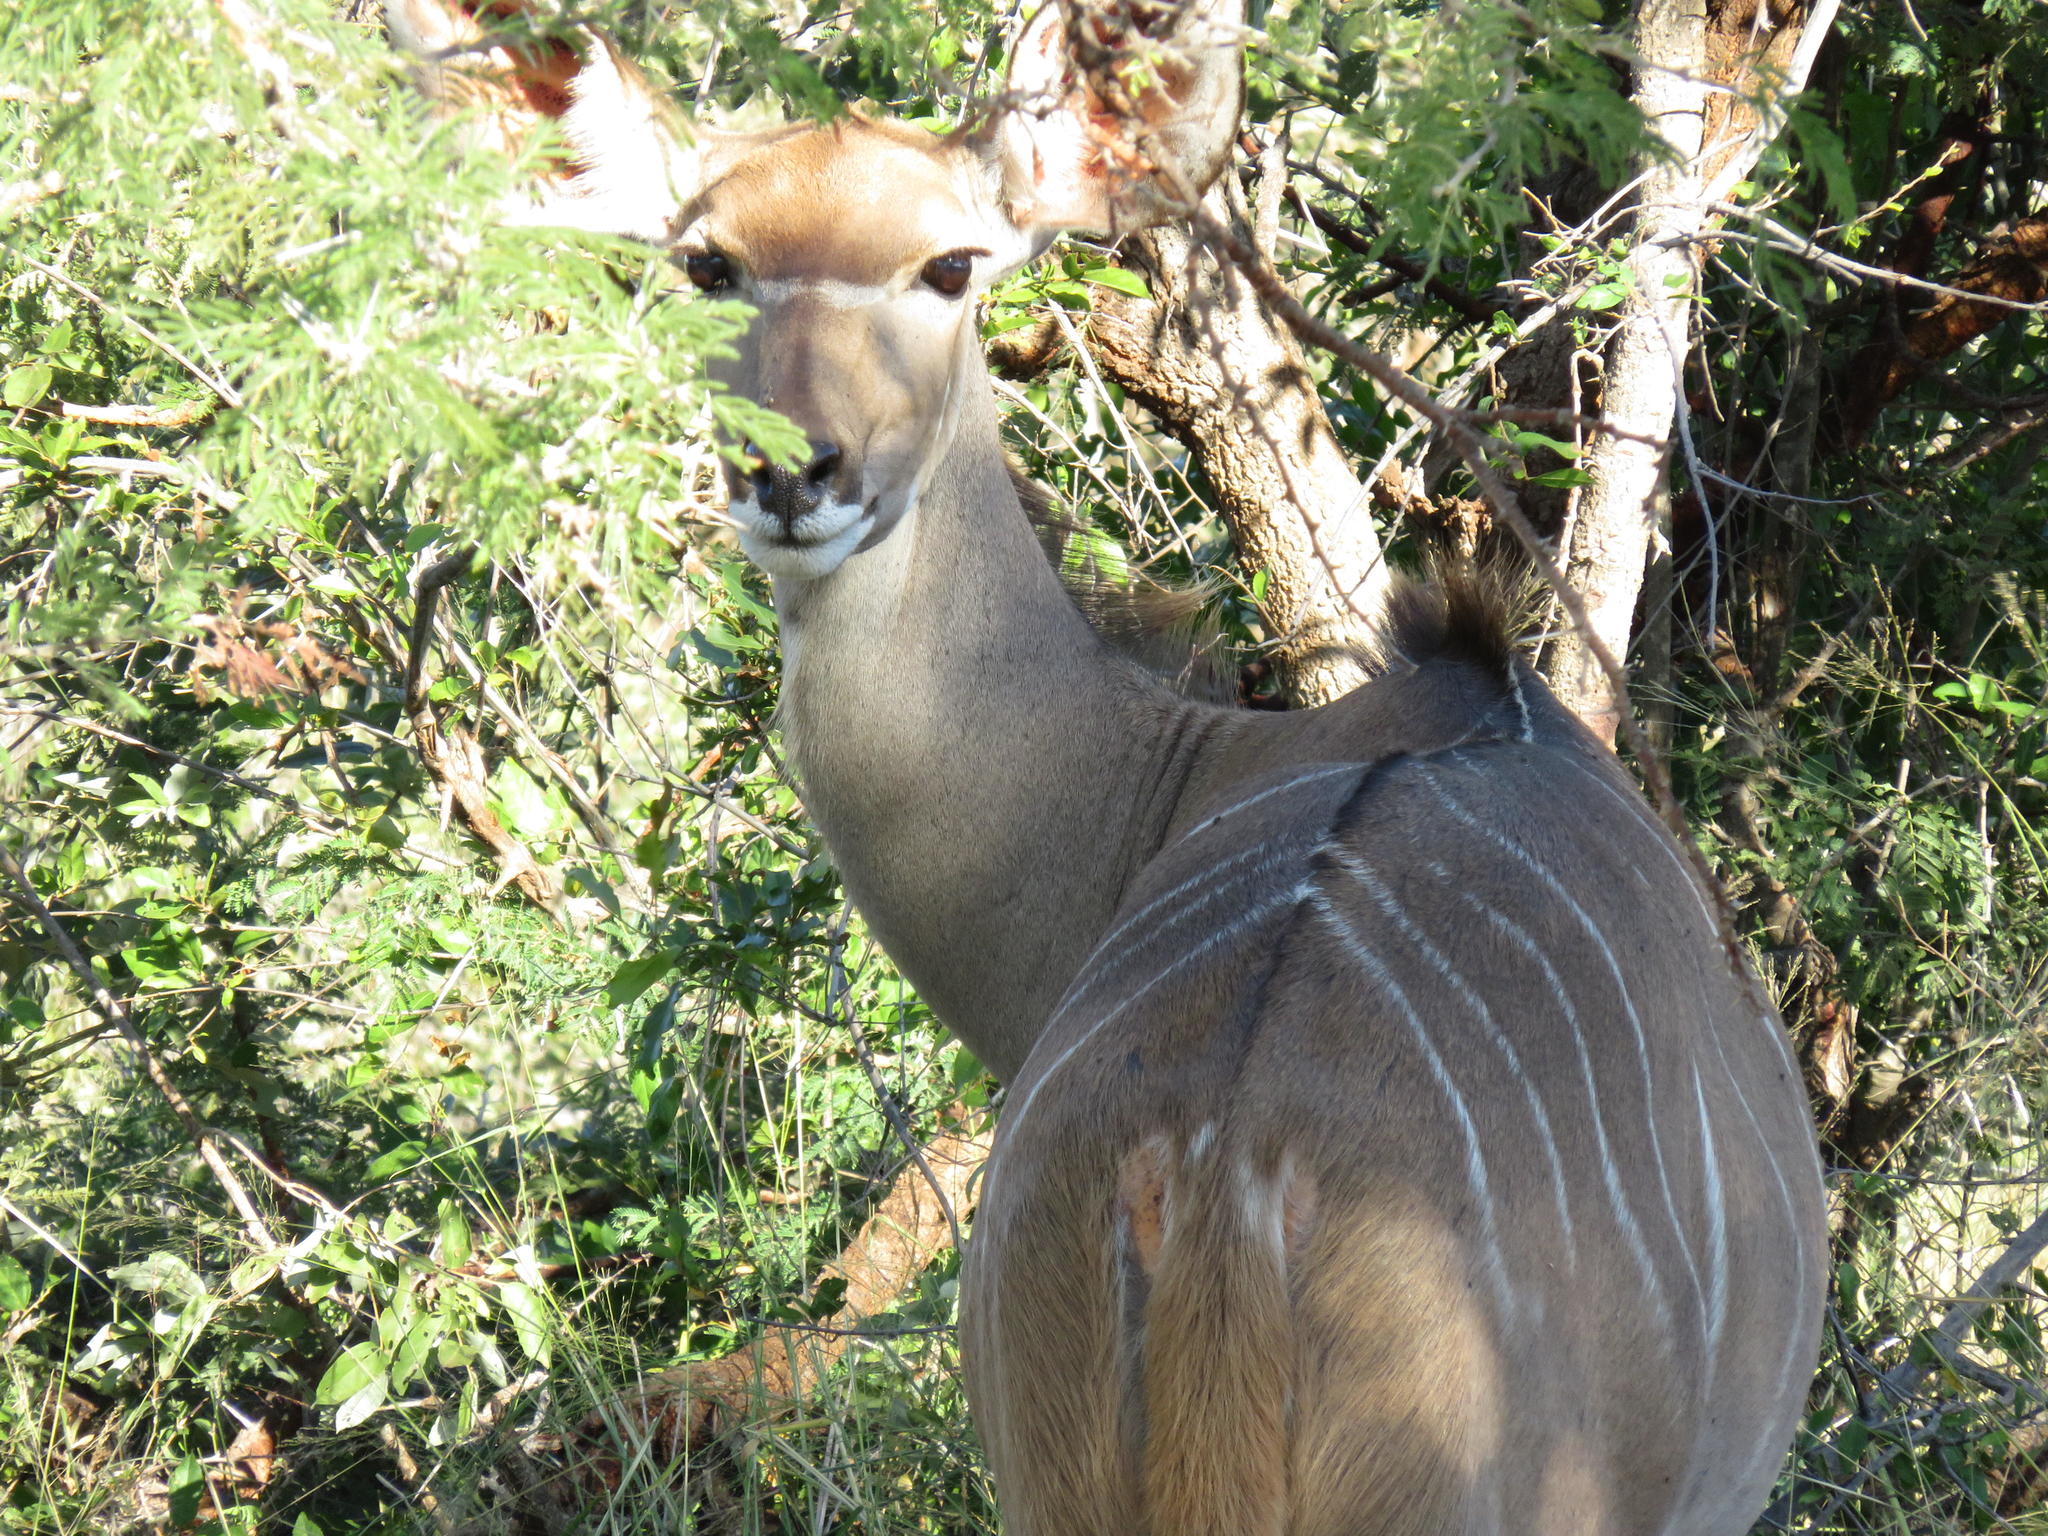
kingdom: Animalia
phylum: Chordata
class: Mammalia
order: Artiodactyla
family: Bovidae
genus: Tragelaphus
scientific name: Tragelaphus strepsiceros
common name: Greater kudu
